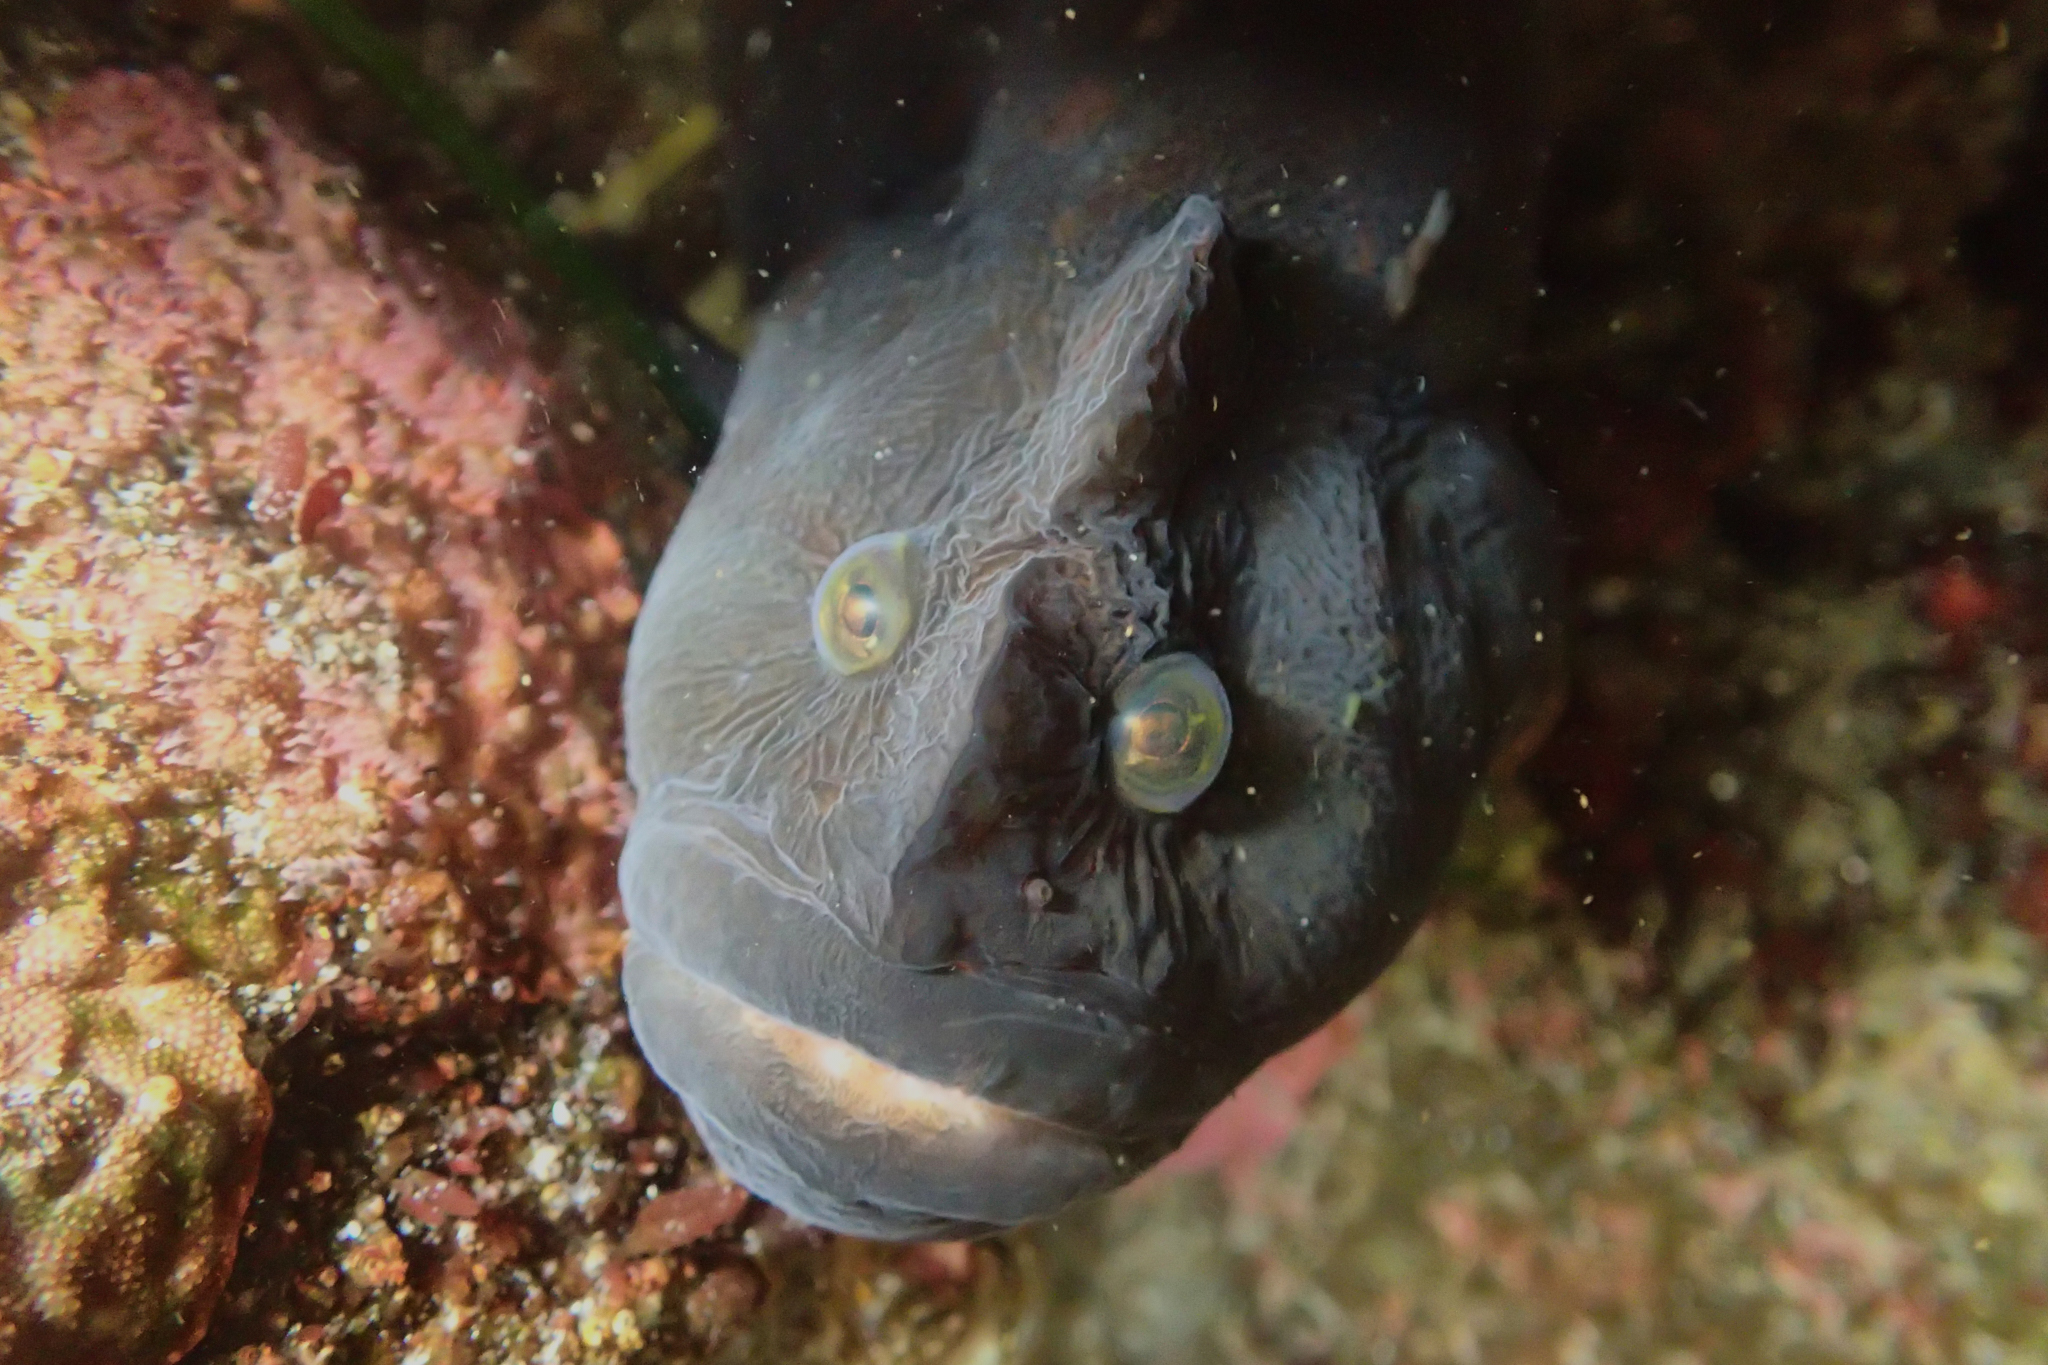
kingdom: Animalia
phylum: Chordata
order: Perciformes
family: Stichaeidae
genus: Cebidichthys
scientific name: Cebidichthys violaceus
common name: Monkeyface prickleback
